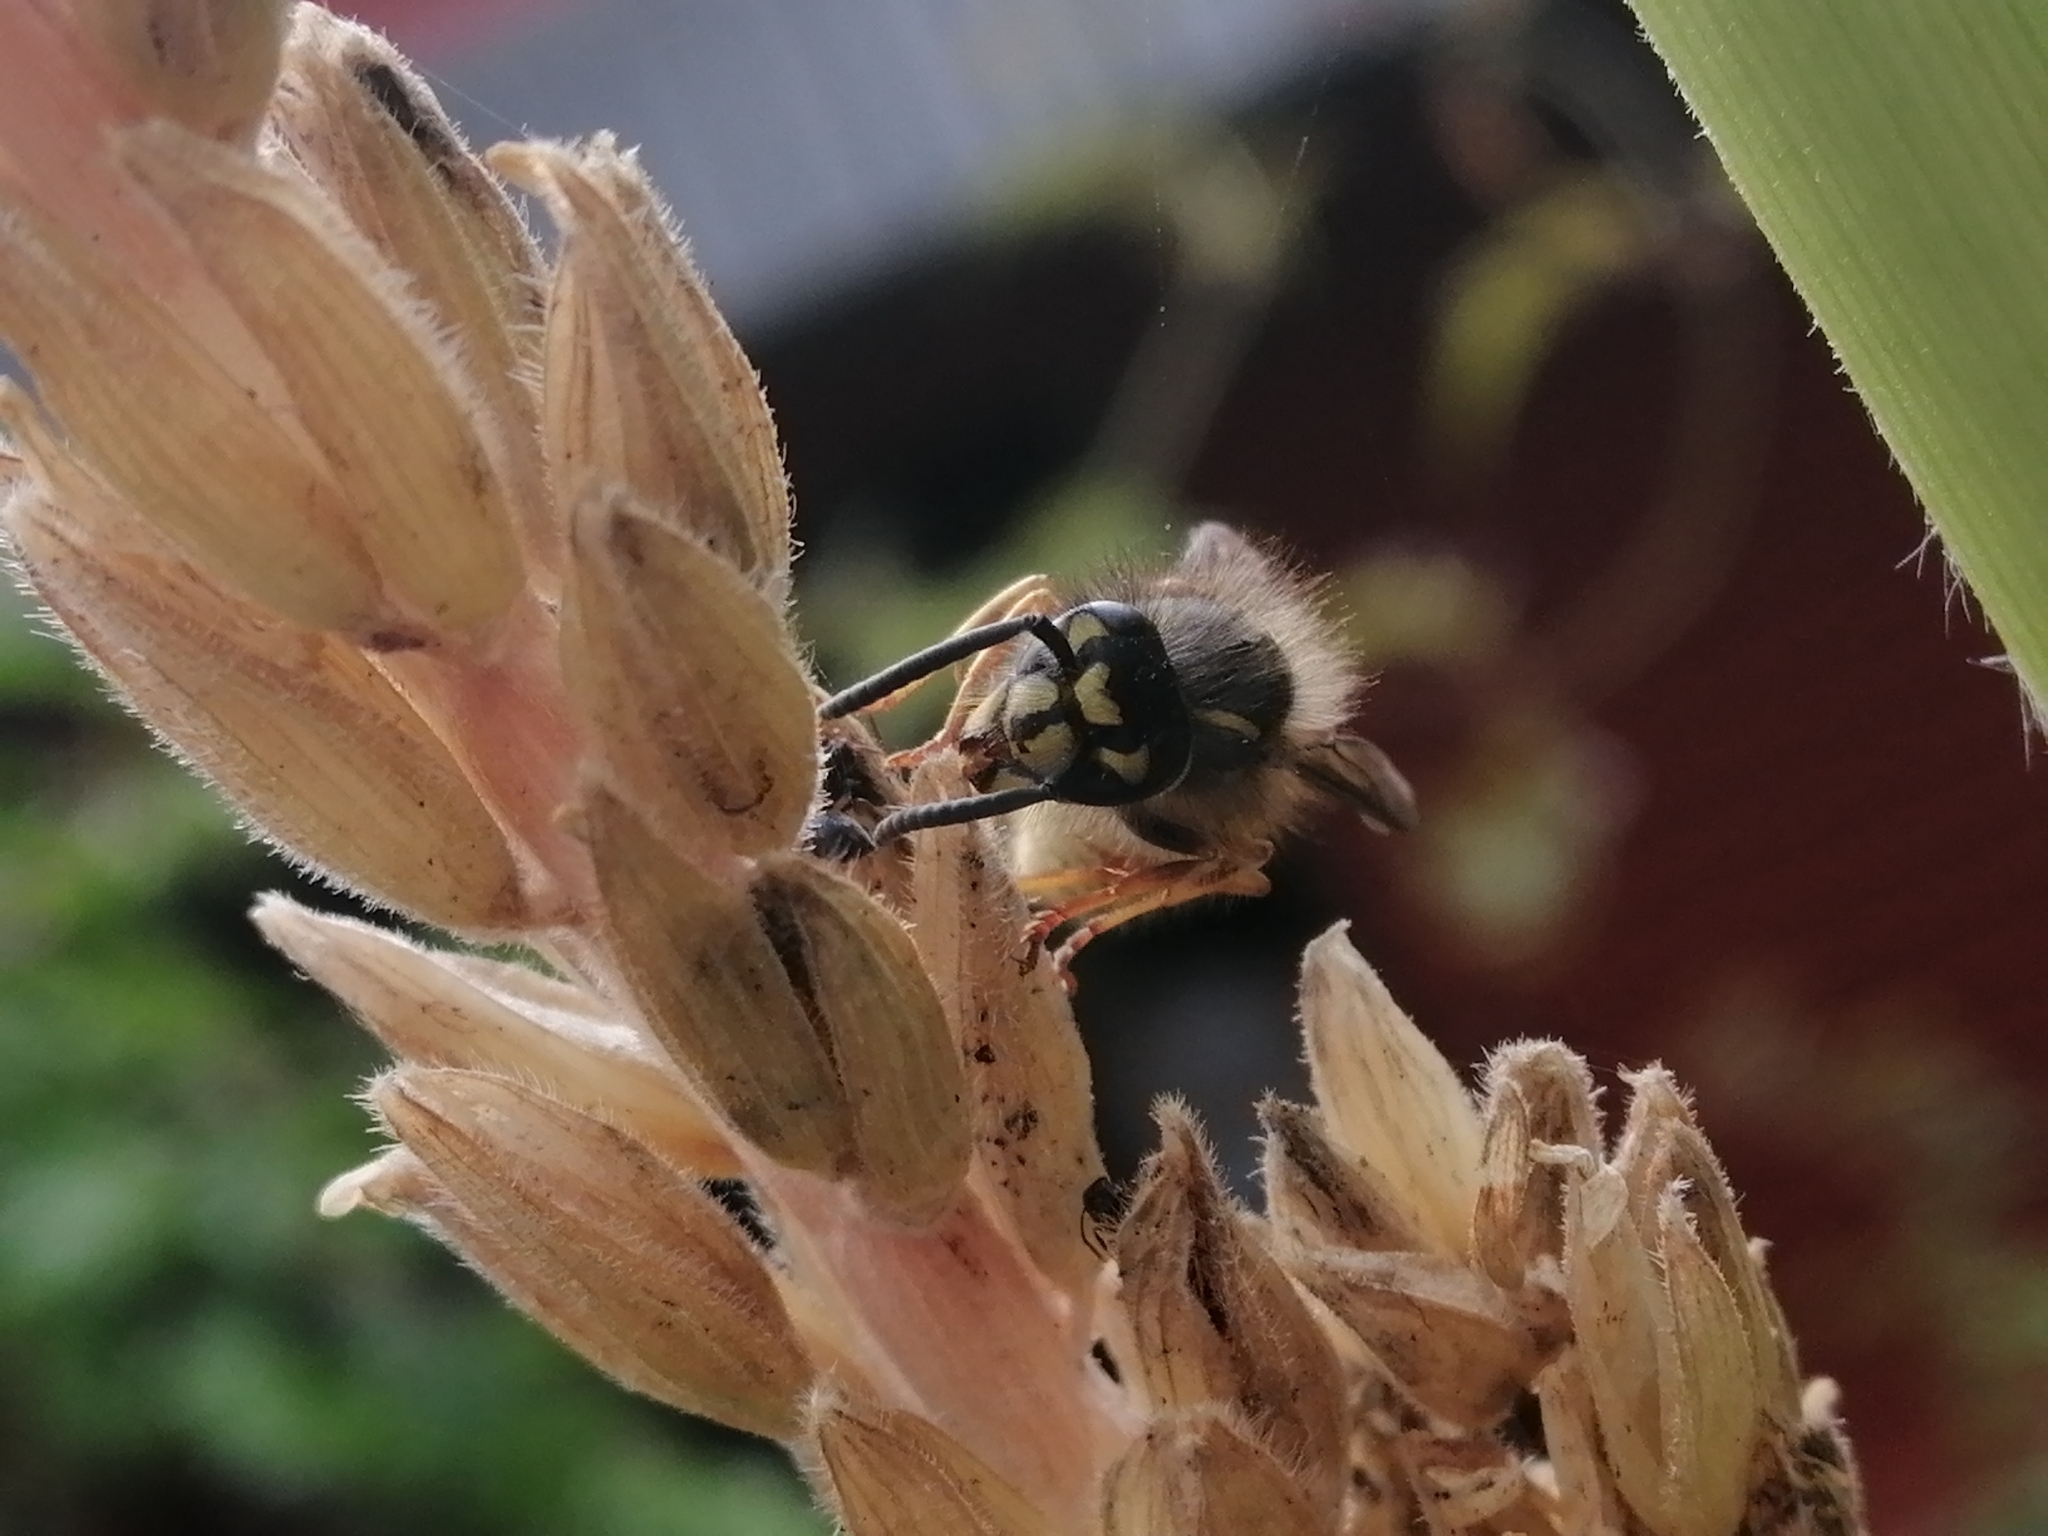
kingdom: Animalia
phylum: Arthropoda
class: Insecta
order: Hymenoptera
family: Vespidae
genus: Vespula
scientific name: Vespula vulgaris
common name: Common wasp
